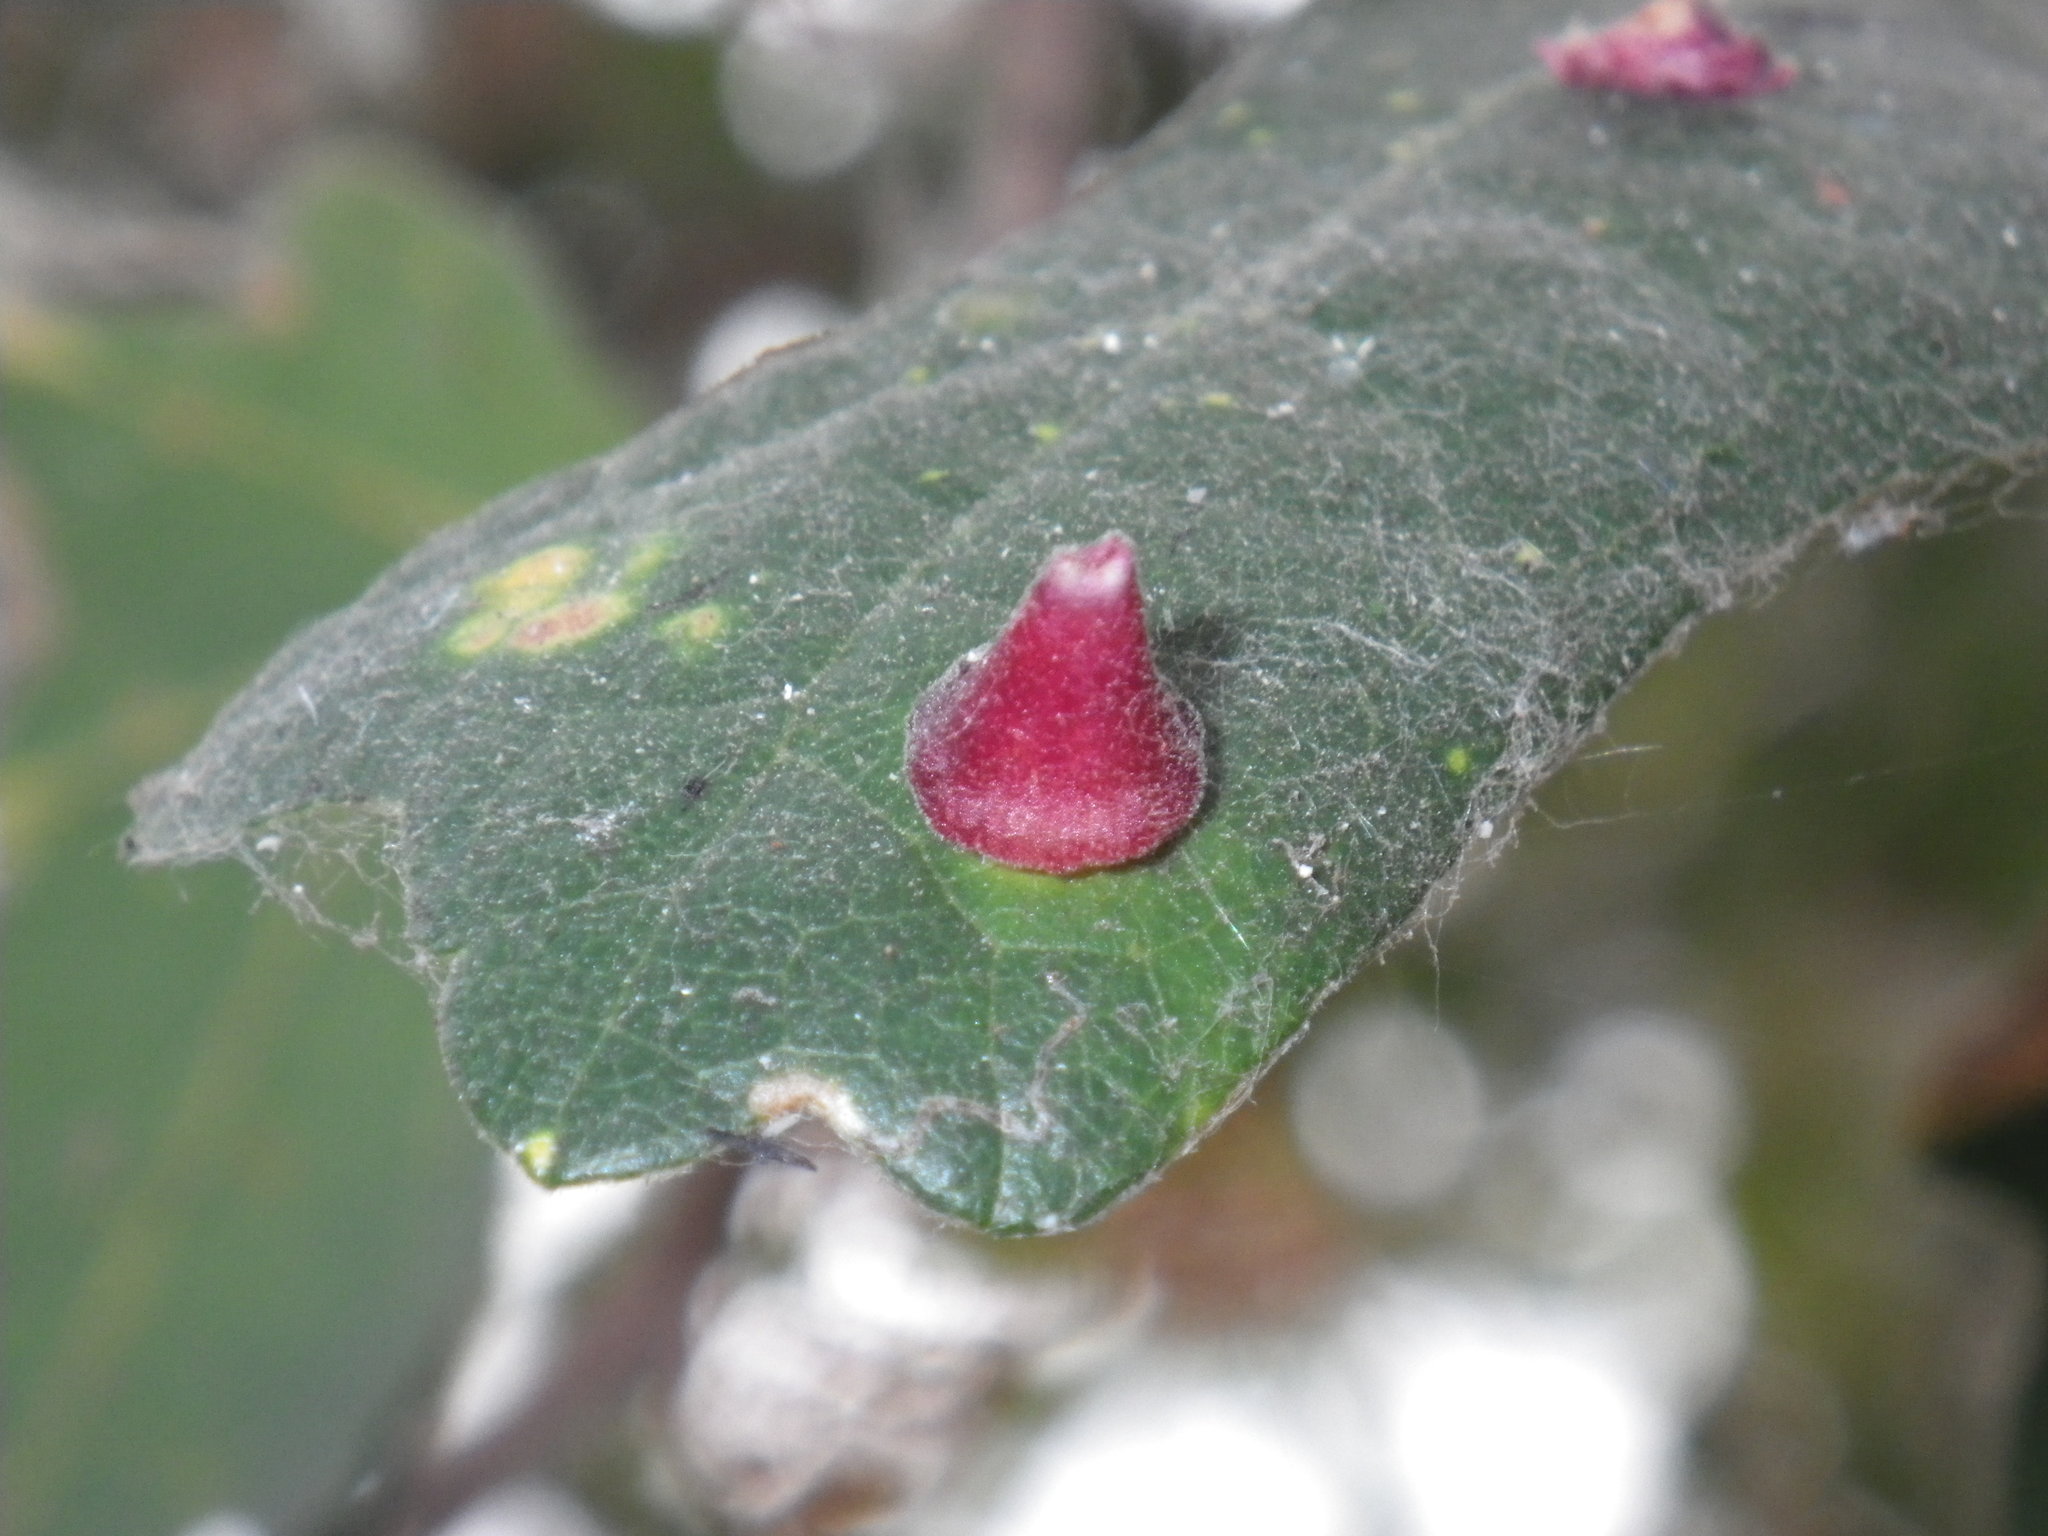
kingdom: Animalia
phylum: Arthropoda
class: Insecta
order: Hymenoptera
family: Cynipidae
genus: Andricus
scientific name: Andricus
